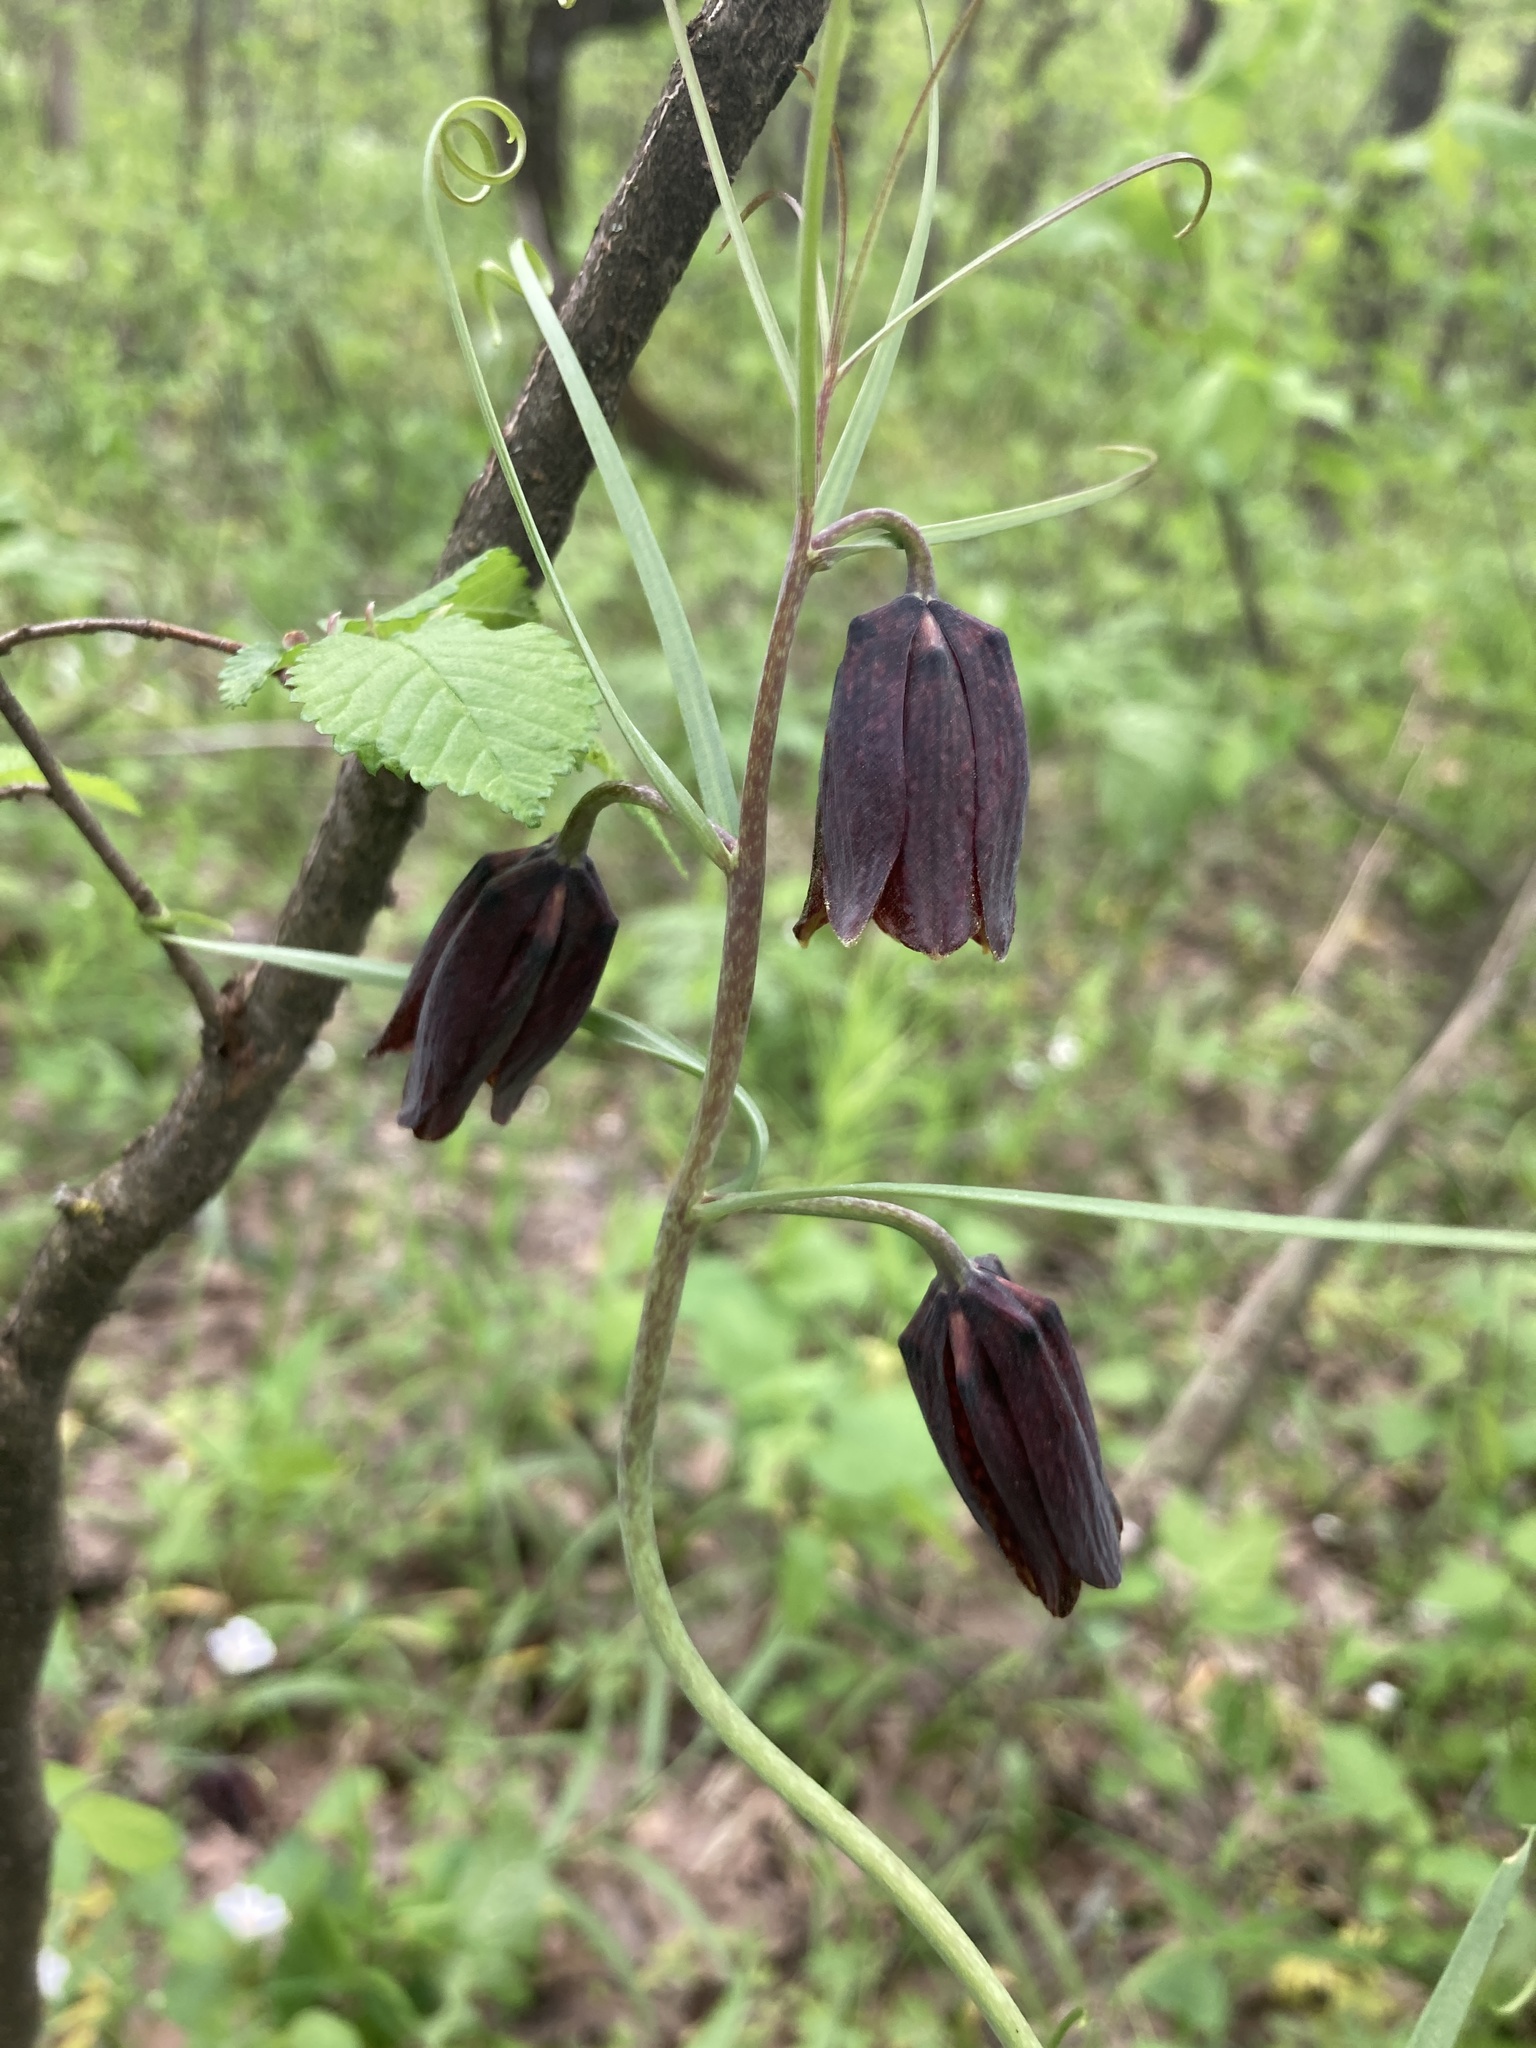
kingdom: Plantae
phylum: Tracheophyta
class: Liliopsida
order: Liliales
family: Liliaceae
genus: Fritillaria
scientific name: Fritillaria ruthenica
